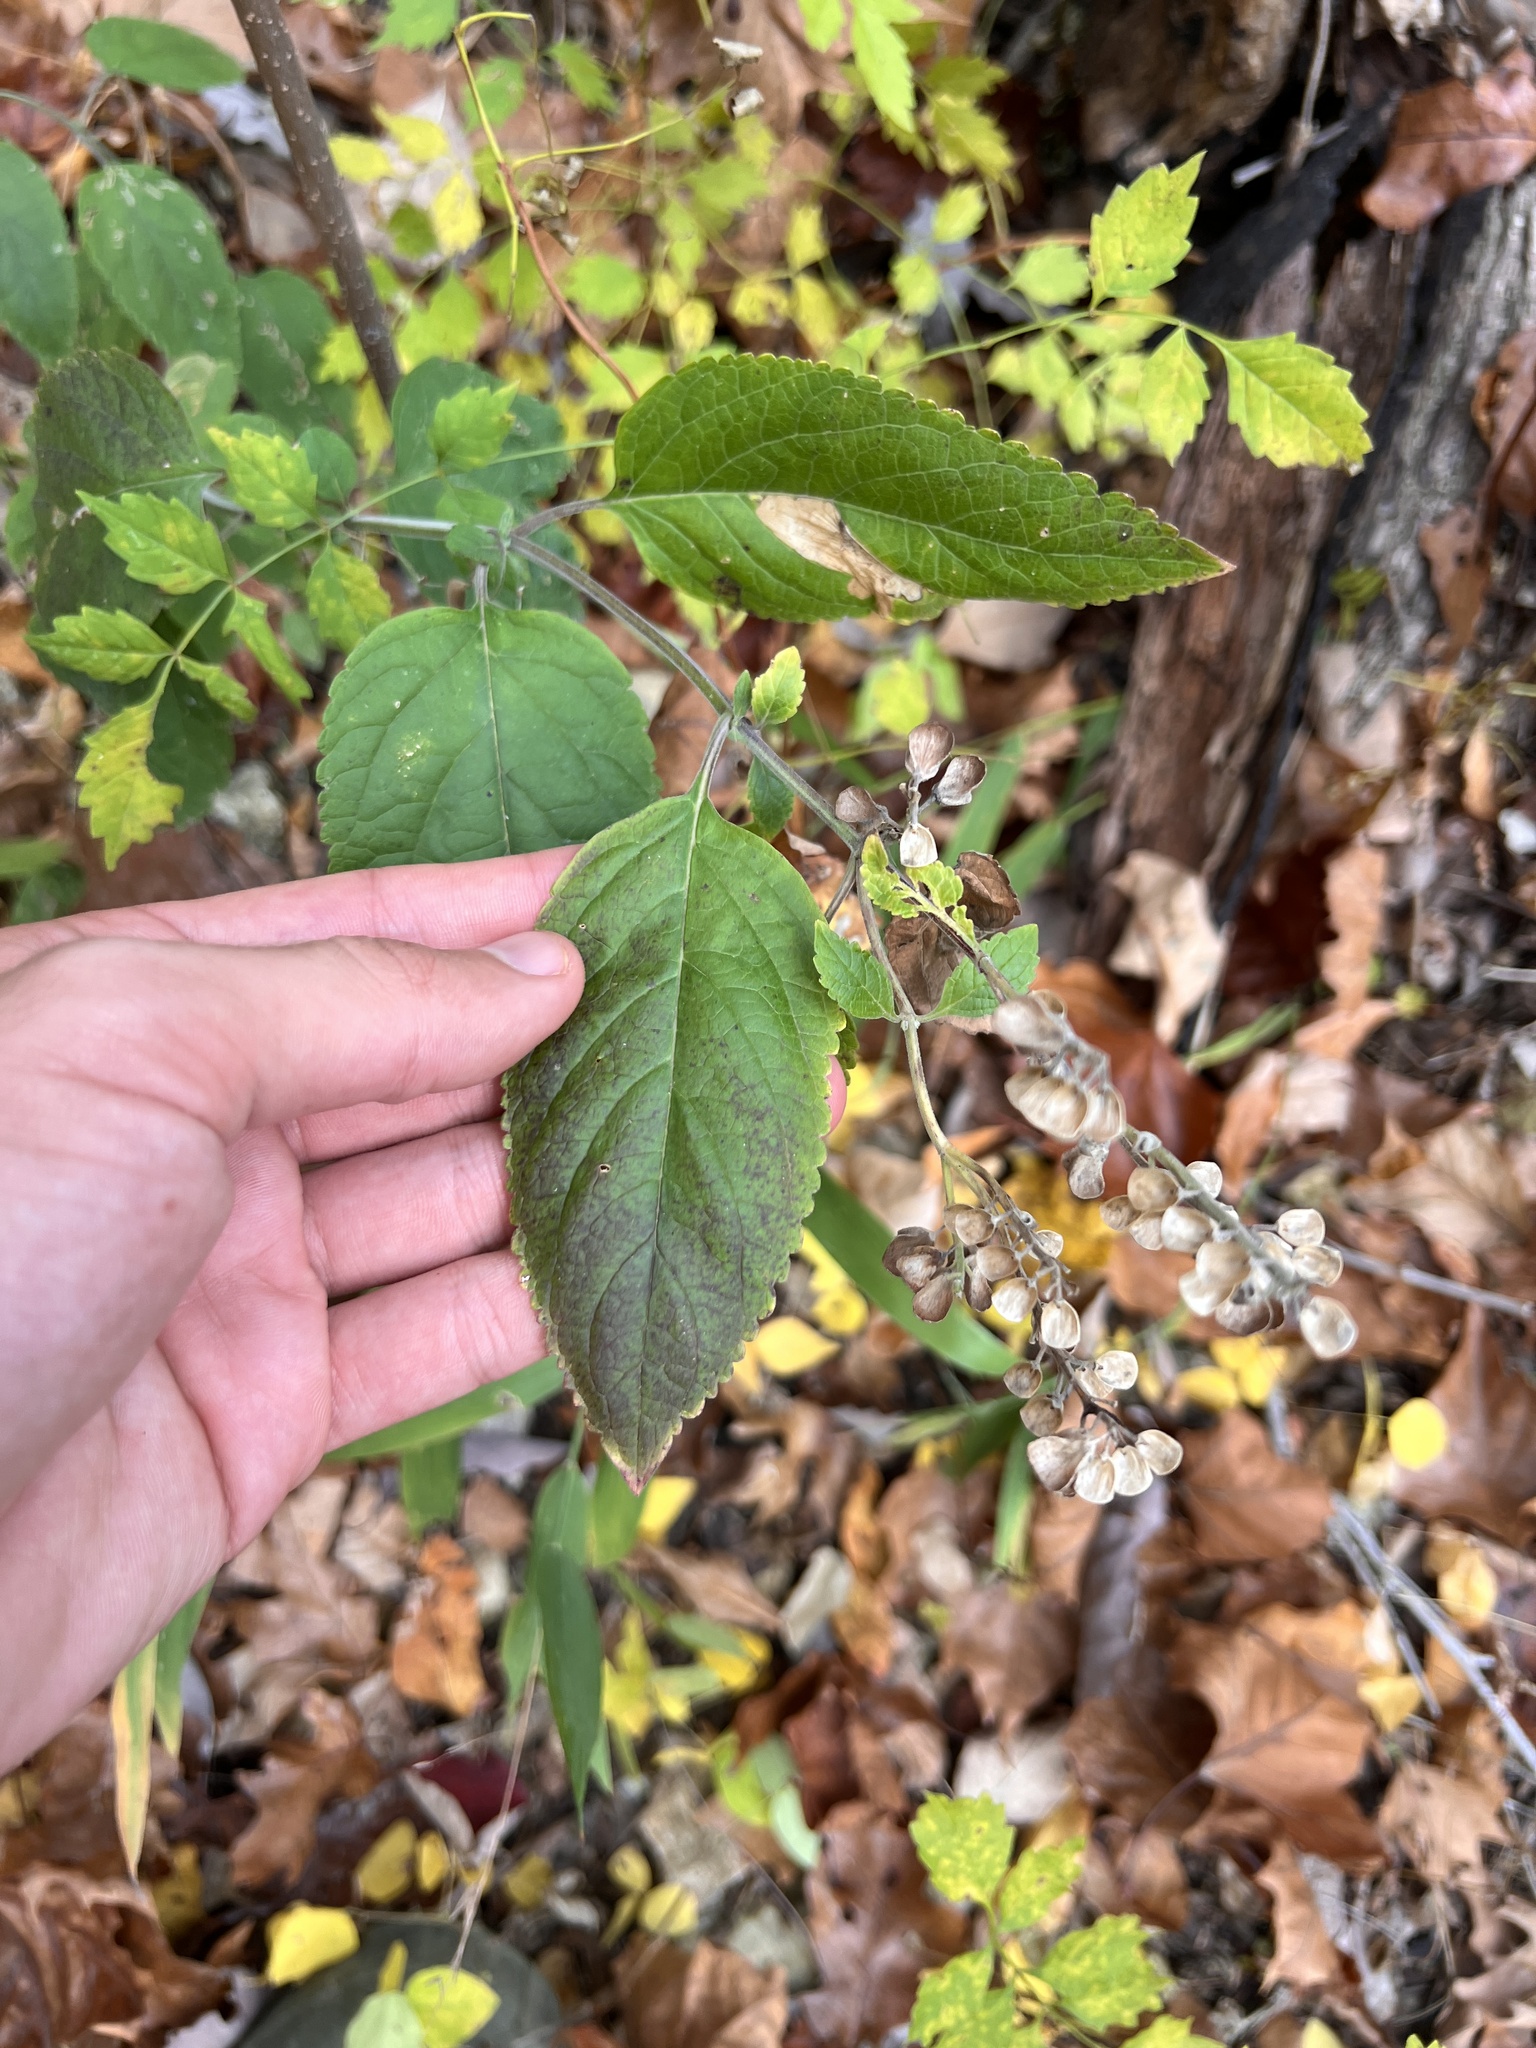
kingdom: Plantae
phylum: Tracheophyta
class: Magnoliopsida
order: Lamiales
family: Lamiaceae
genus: Scutellaria
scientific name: Scutellaria incana
